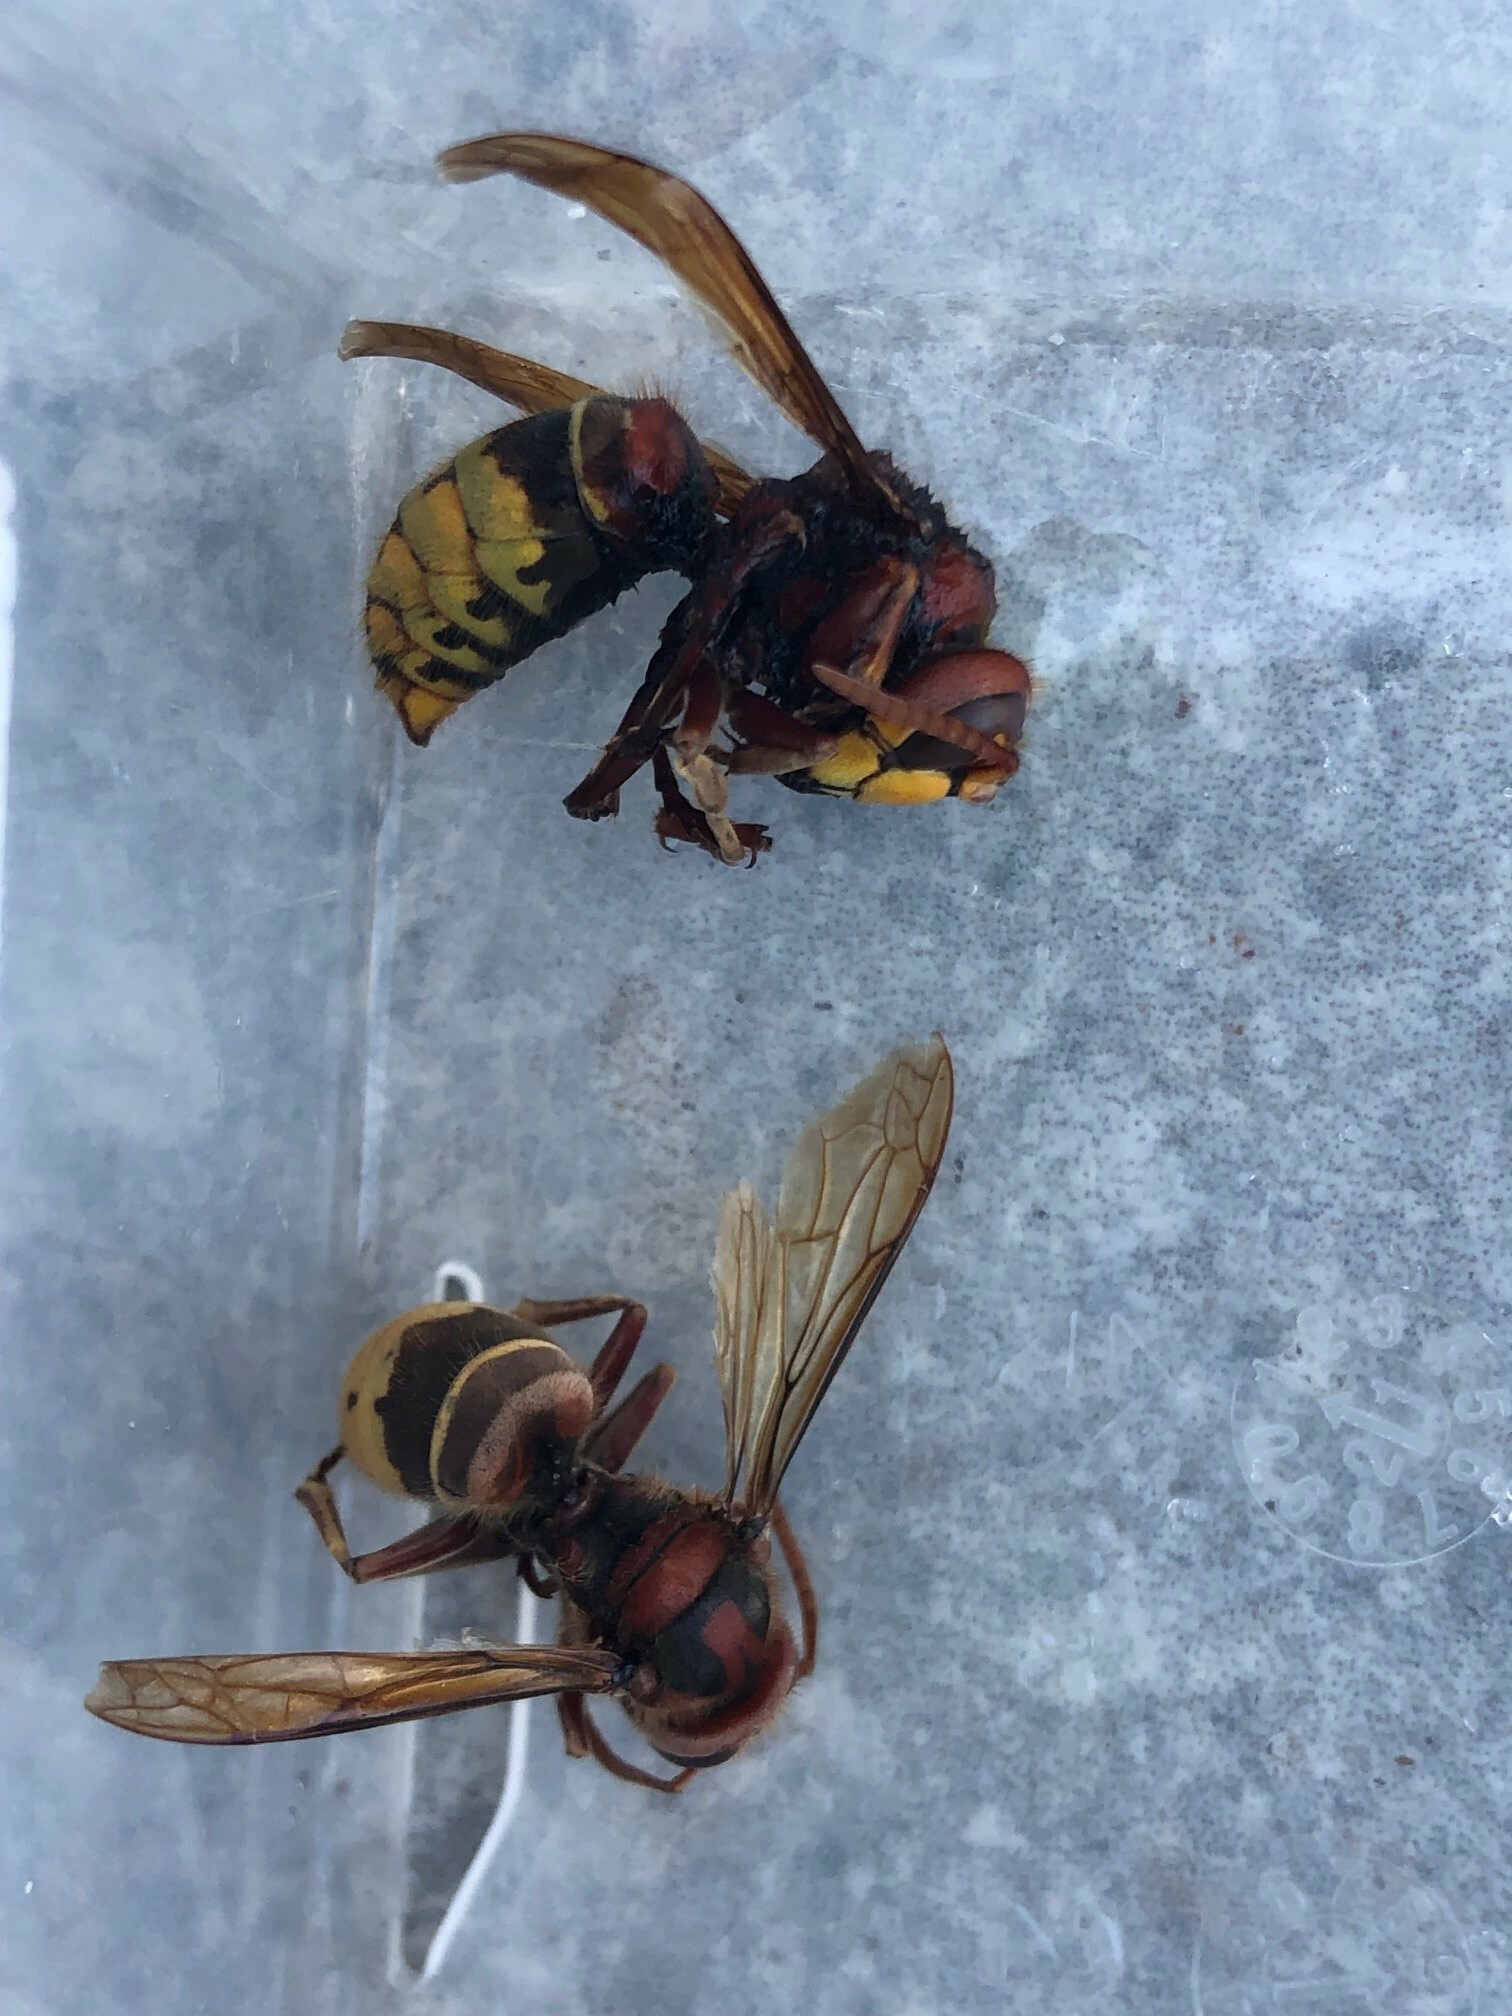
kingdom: Animalia
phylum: Arthropoda
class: Insecta
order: Hymenoptera
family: Vespidae
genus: Vespa
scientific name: Vespa crabro
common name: Hornet
